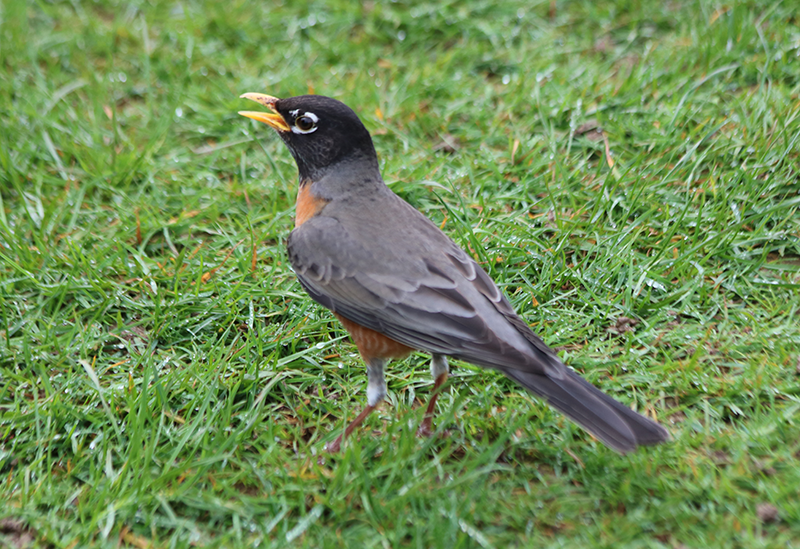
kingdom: Animalia
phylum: Chordata
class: Aves
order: Passeriformes
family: Turdidae
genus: Turdus
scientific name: Turdus migratorius
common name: American robin
